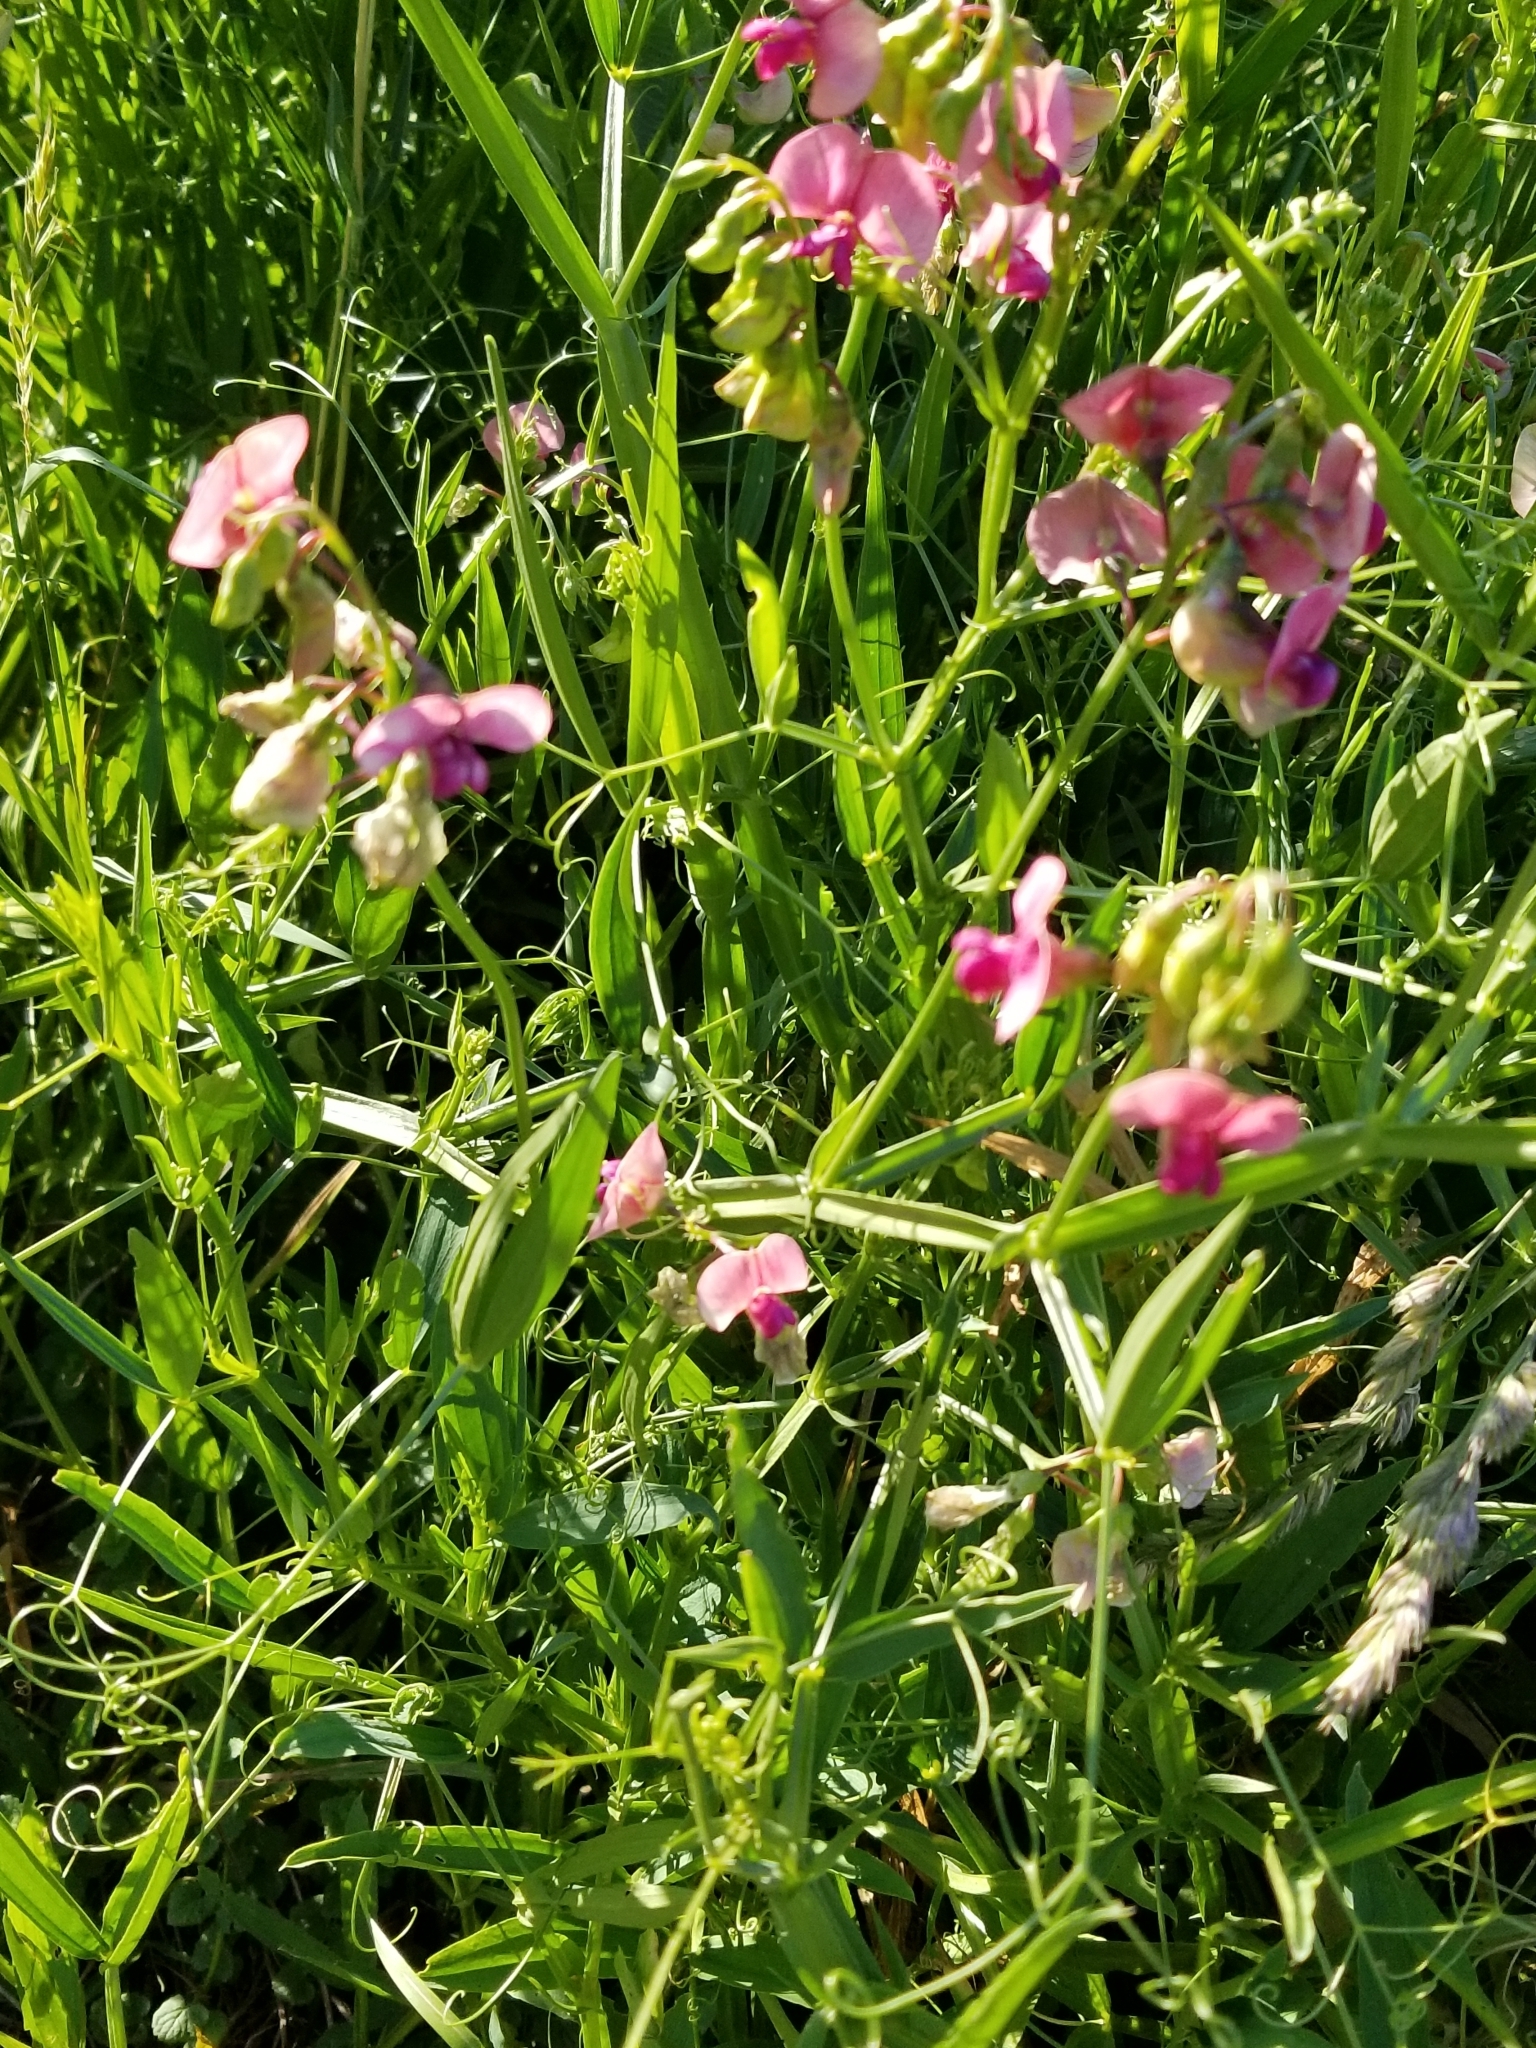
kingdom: Plantae
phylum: Tracheophyta
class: Magnoliopsida
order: Fabales
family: Fabaceae
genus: Lathyrus
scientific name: Lathyrus sylvestris
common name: Flat pea
